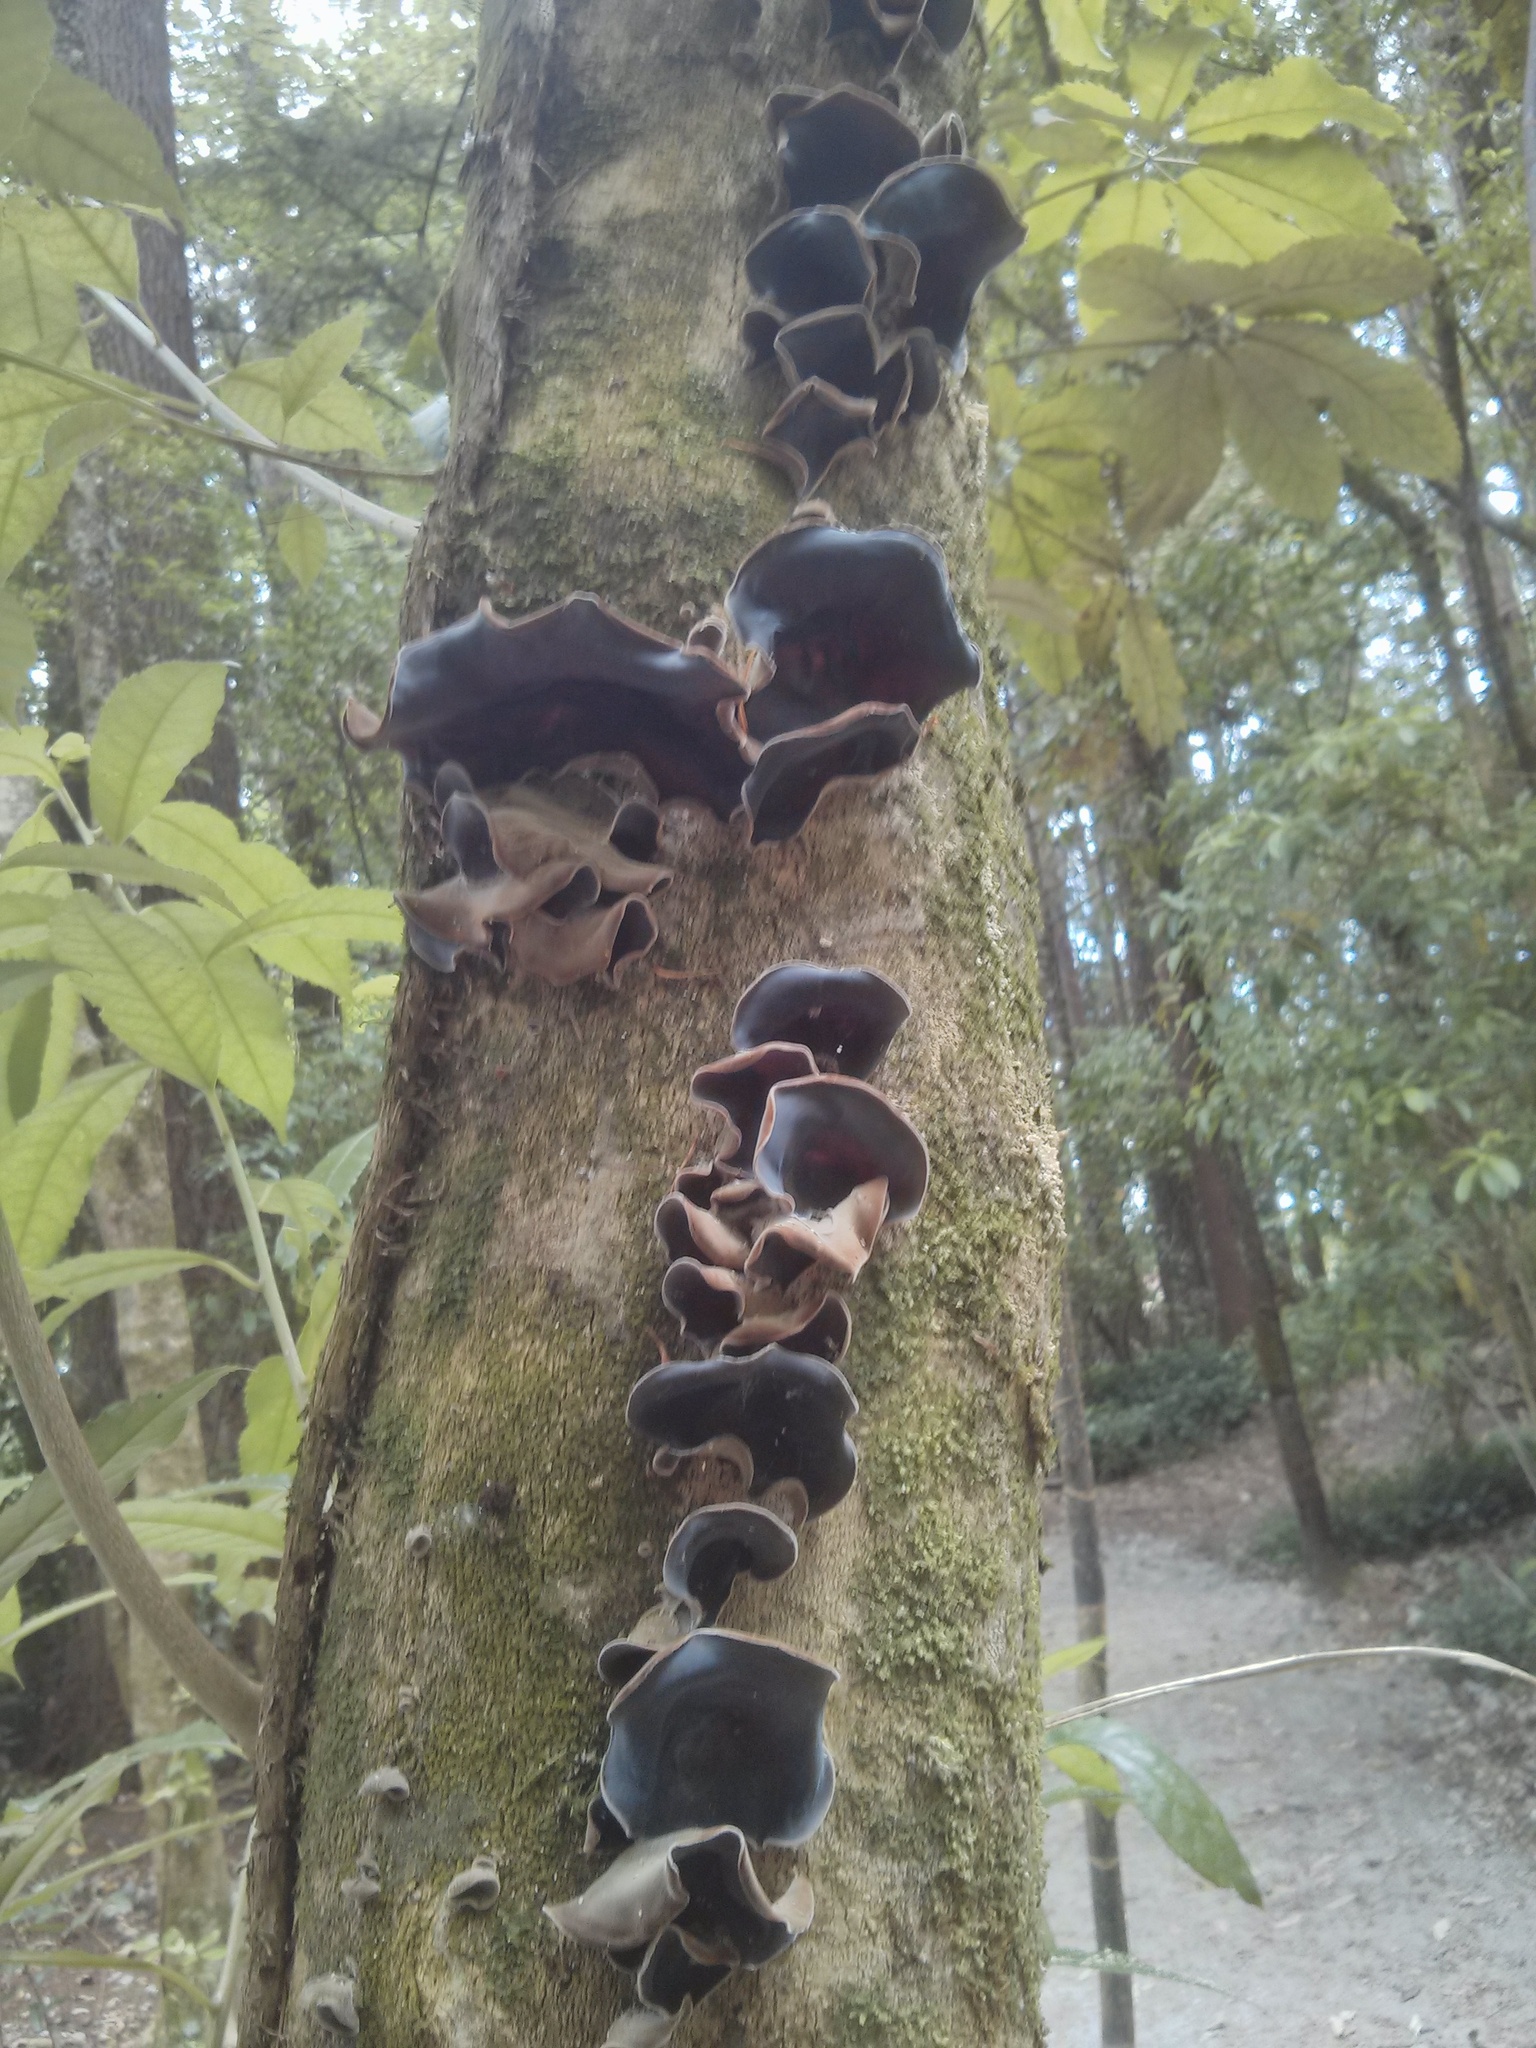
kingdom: Fungi
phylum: Basidiomycota
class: Agaricomycetes
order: Auriculariales
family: Auriculariaceae
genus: Auricularia
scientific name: Auricularia cornea
